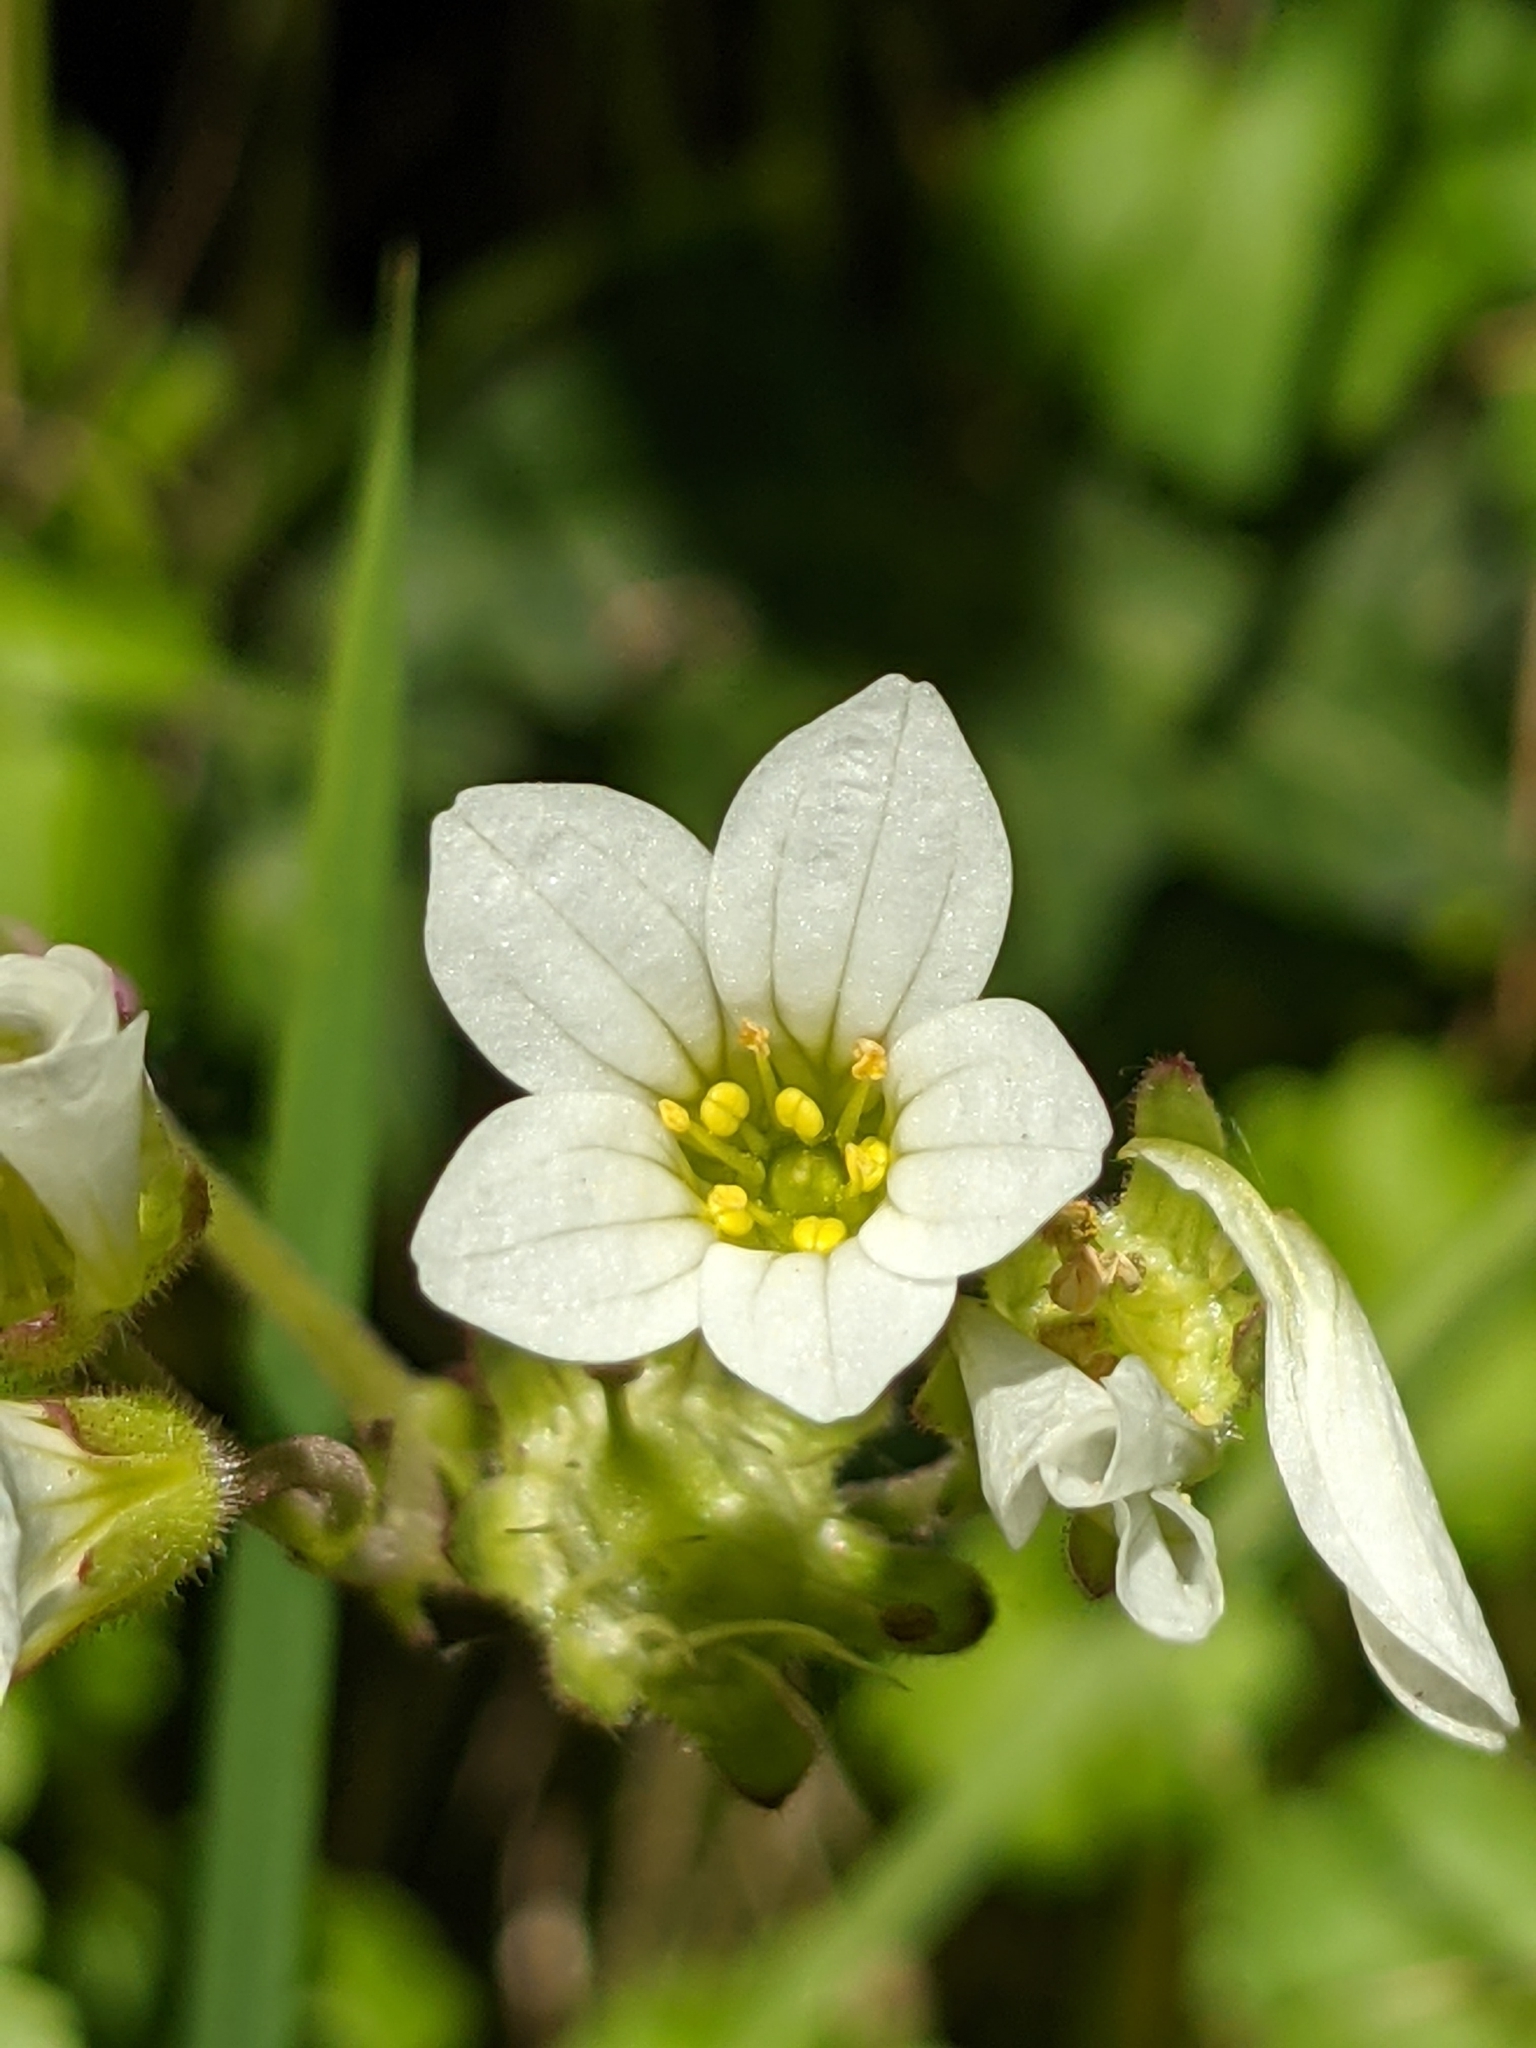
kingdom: Plantae
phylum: Tracheophyta
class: Magnoliopsida
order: Saxifragales
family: Saxifragaceae
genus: Saxifraga
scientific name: Saxifraga granulata
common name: Meadow saxifrage
